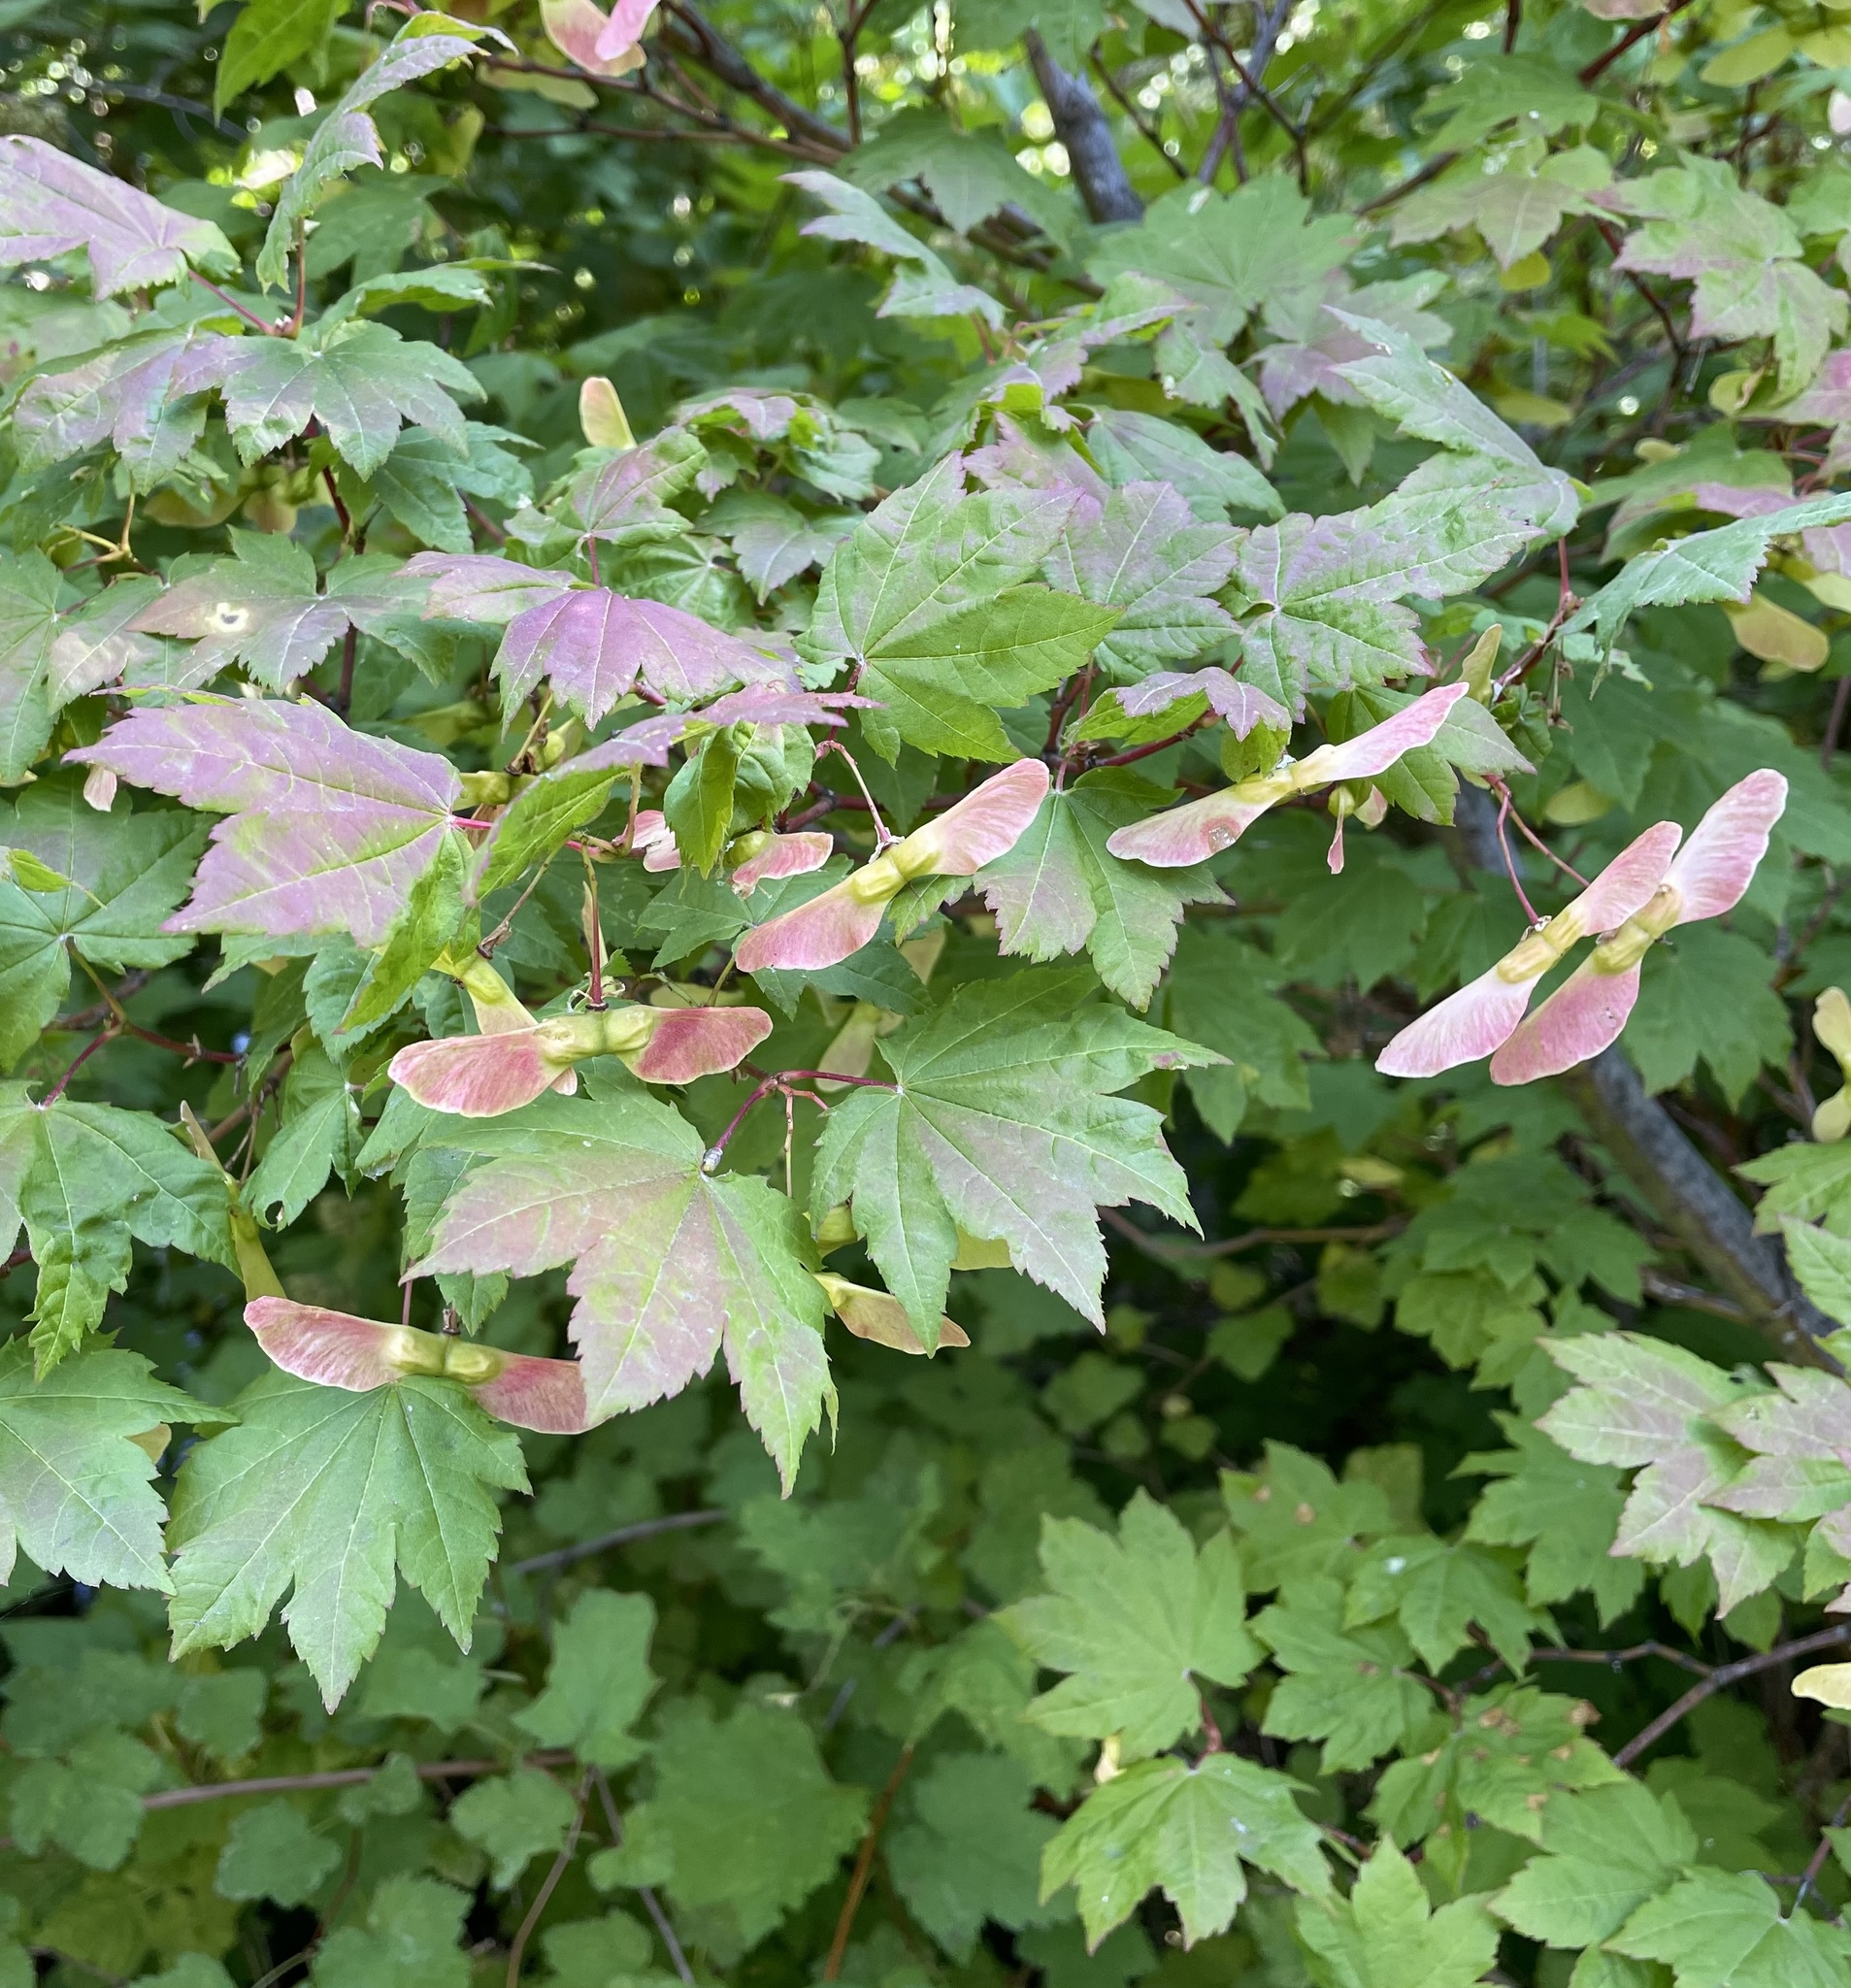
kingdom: Plantae
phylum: Tracheophyta
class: Magnoliopsida
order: Sapindales
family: Sapindaceae
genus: Acer
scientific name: Acer circinatum
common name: Vine maple
